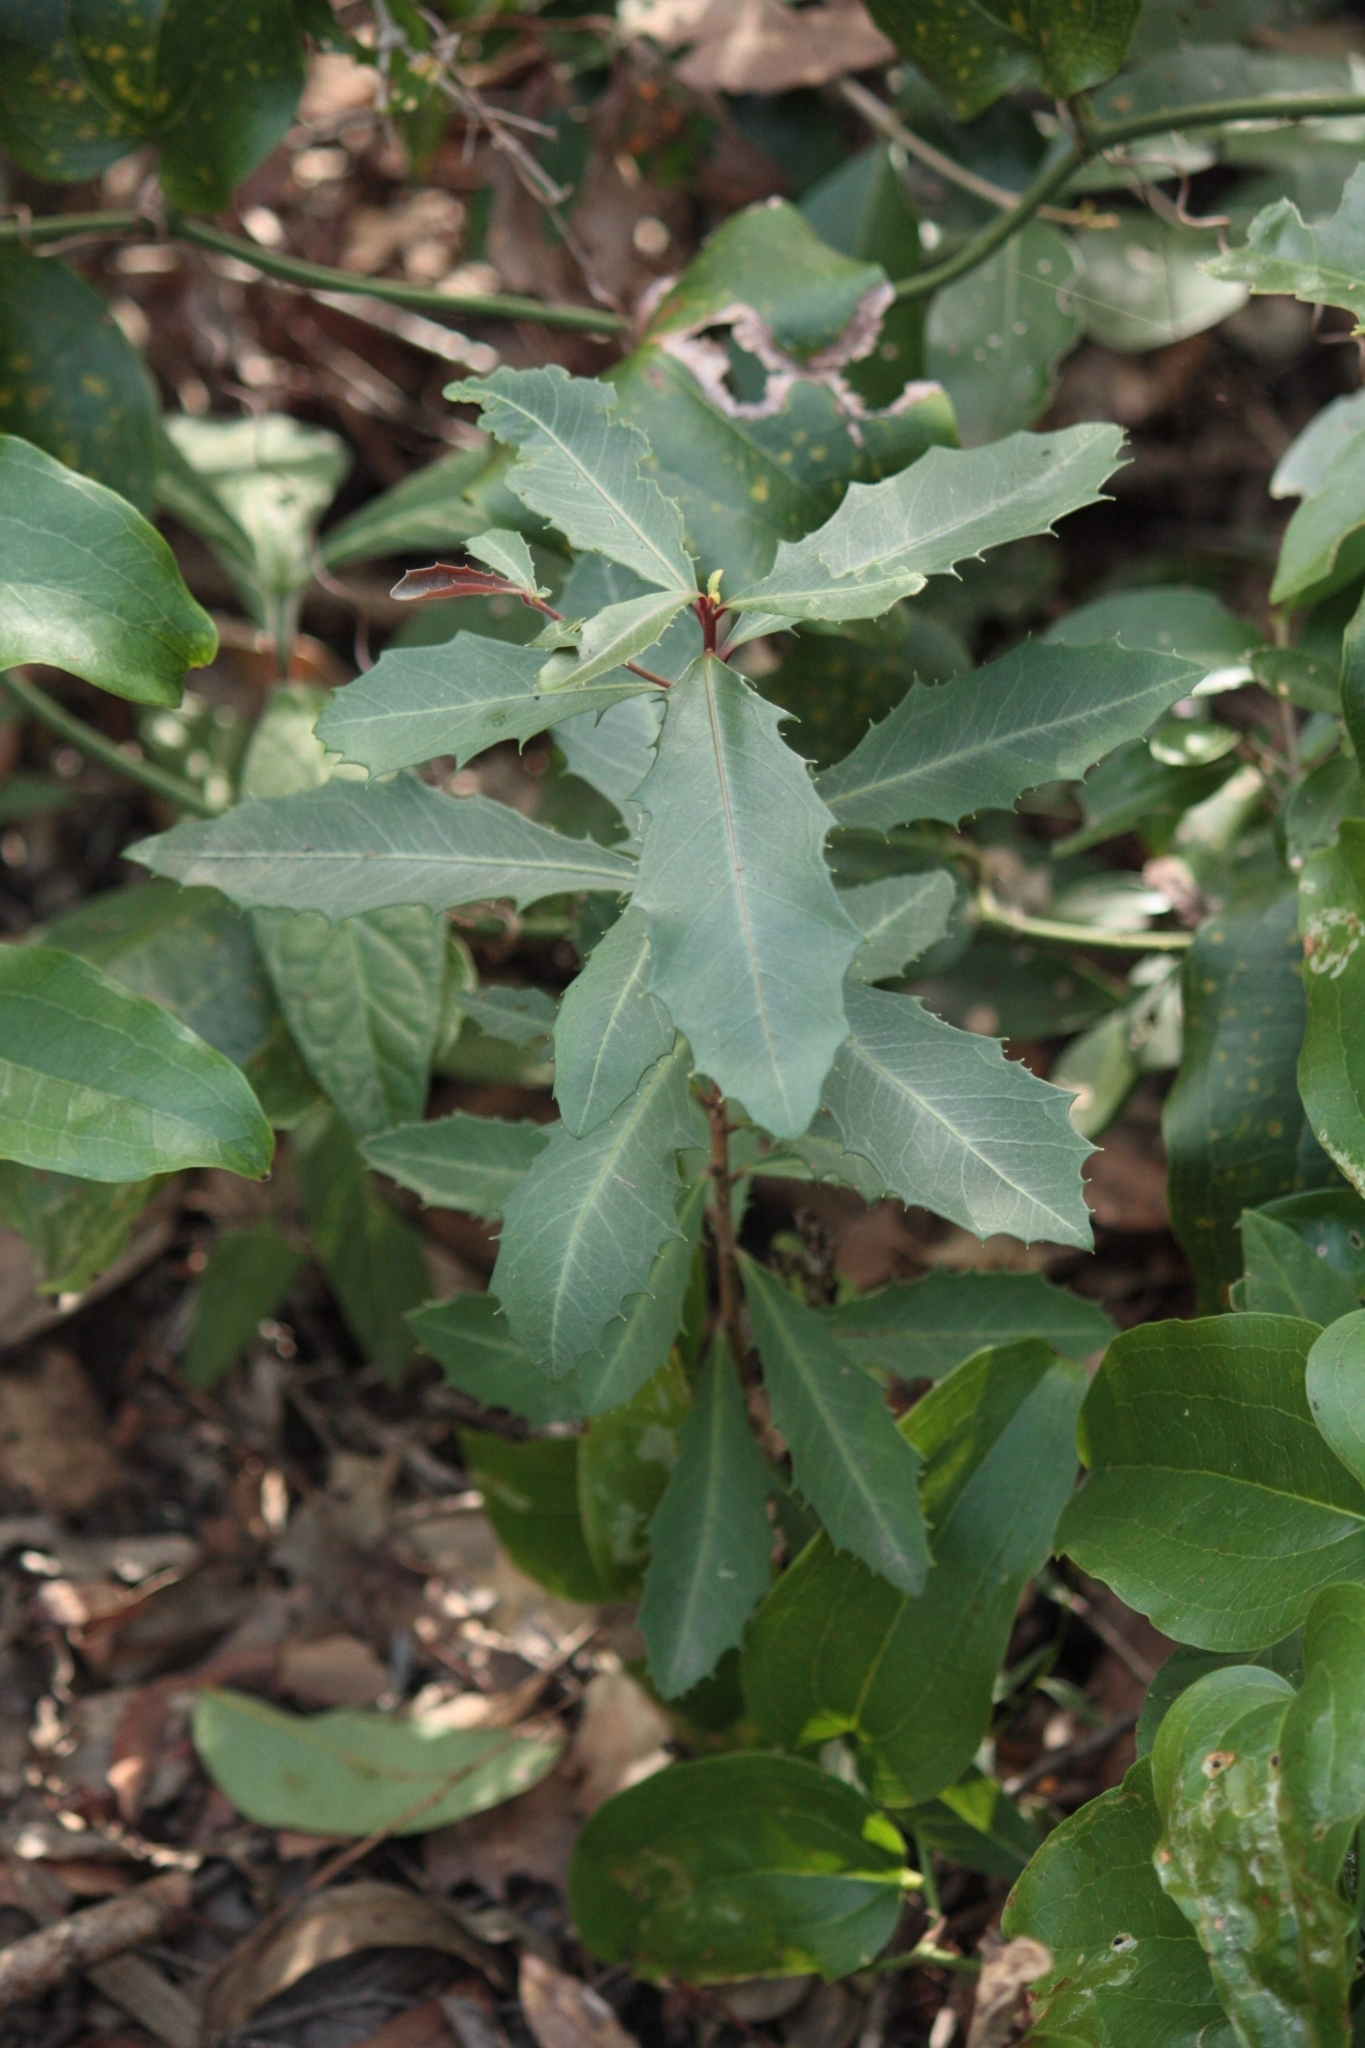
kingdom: Plantae
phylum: Tracheophyta
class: Magnoliopsida
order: Ericales
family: Primulaceae
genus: Myrsine
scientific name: Myrsine variabilis
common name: Brush muttonwood
